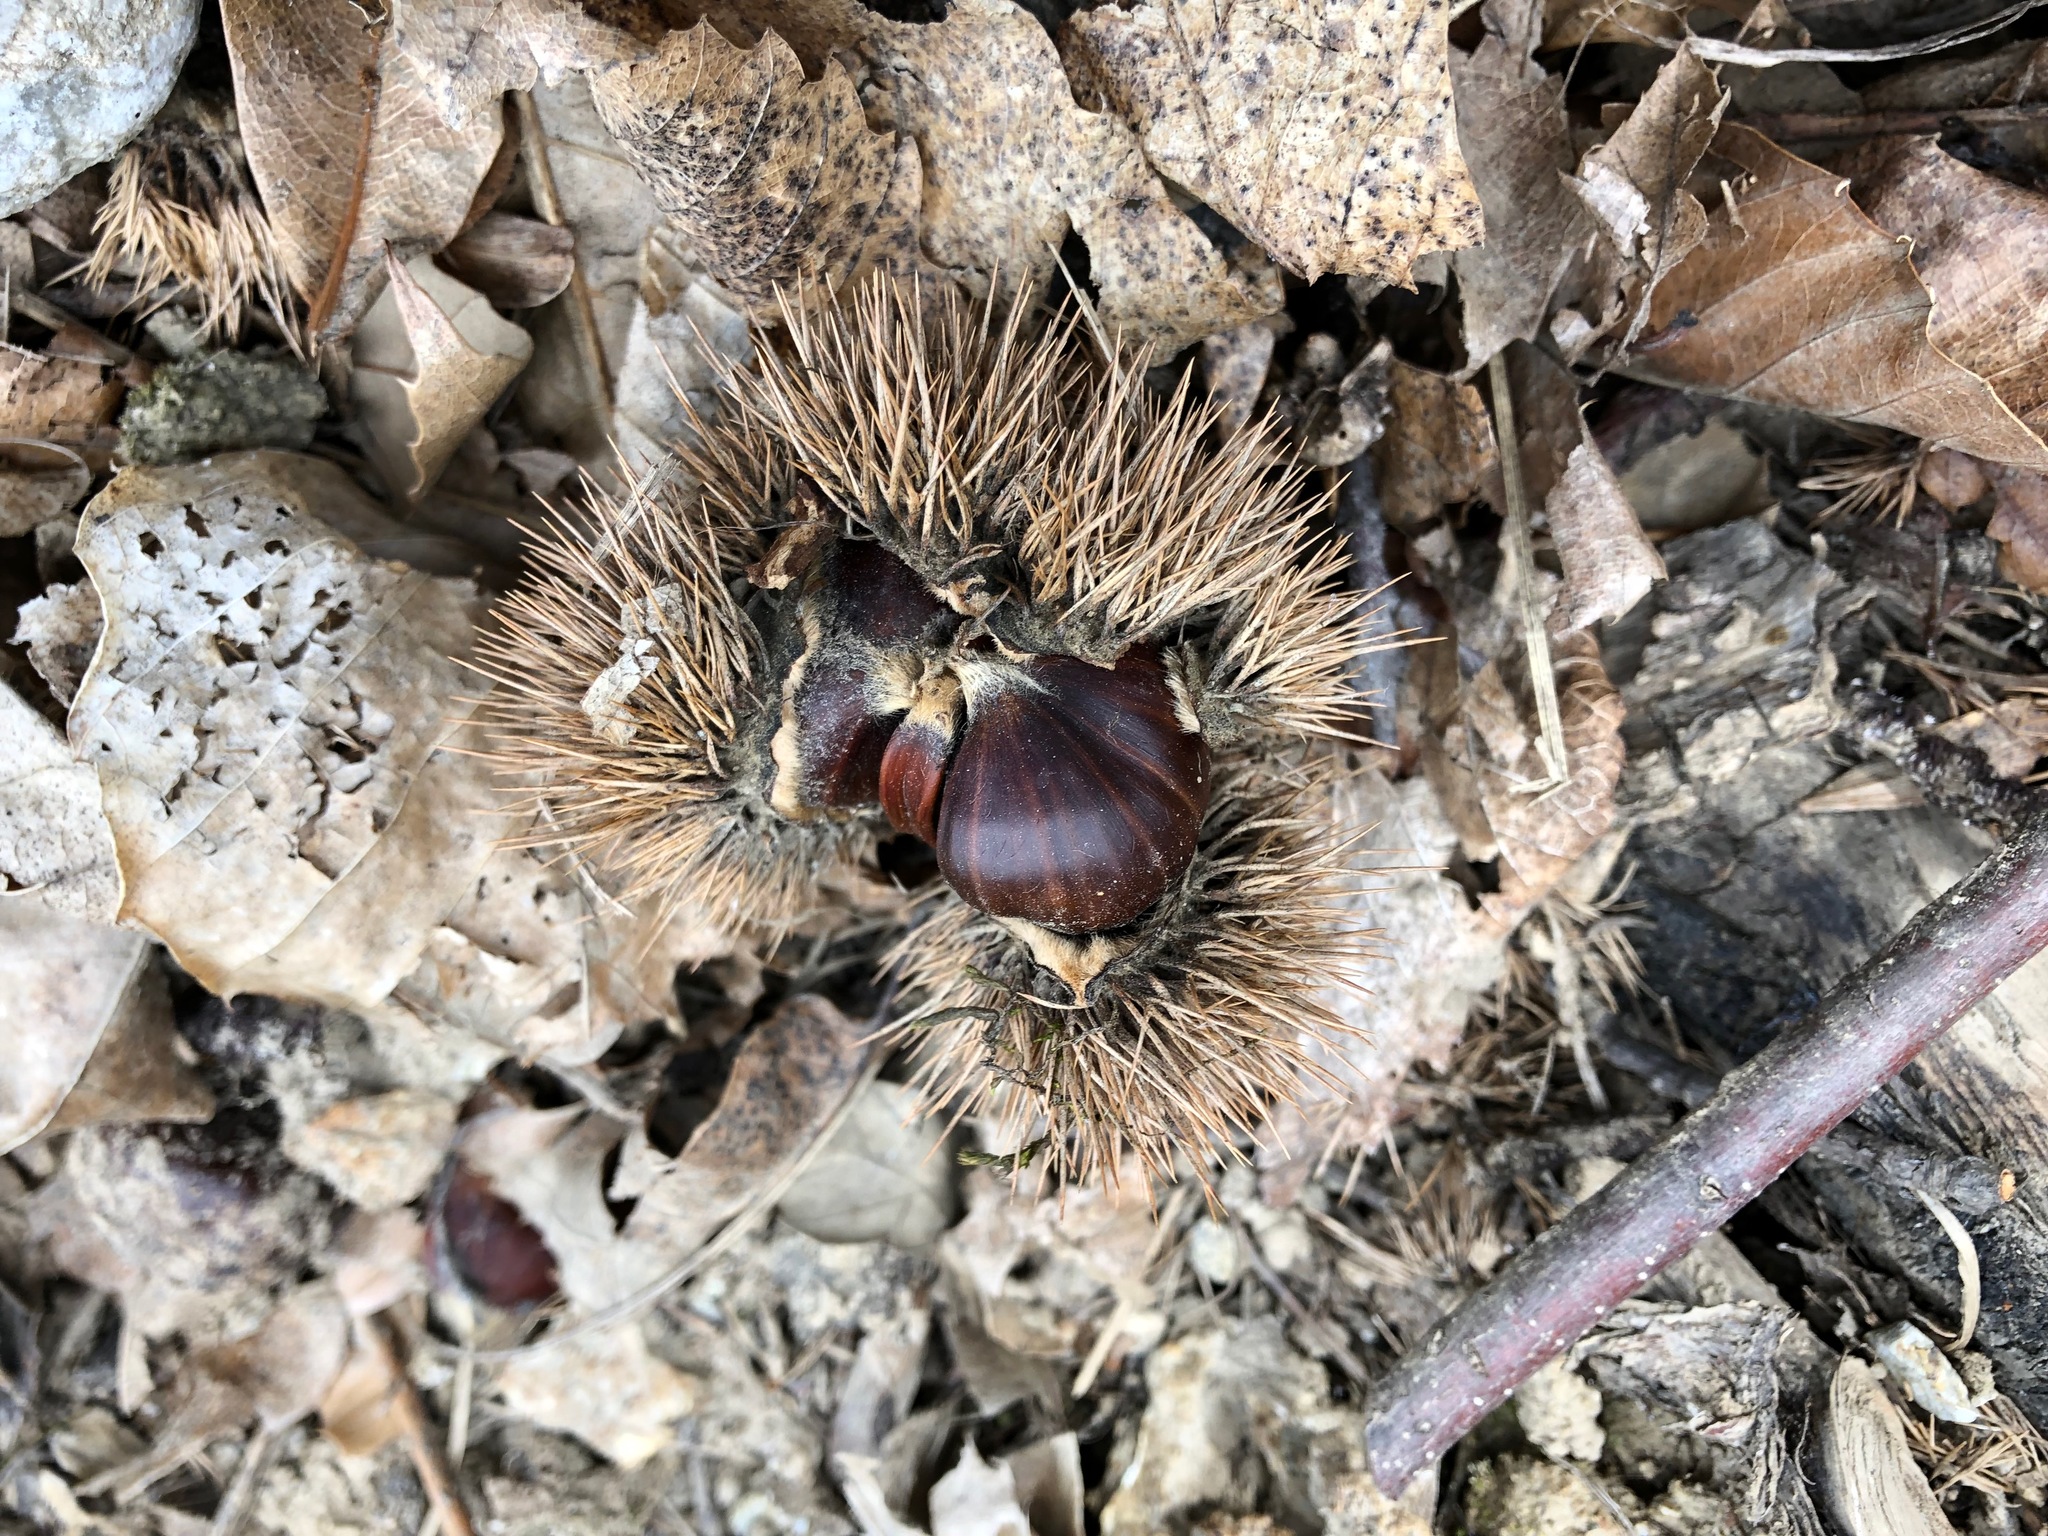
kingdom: Plantae
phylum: Tracheophyta
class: Magnoliopsida
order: Fagales
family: Fagaceae
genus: Castanea
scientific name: Castanea sativa
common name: Sweet chestnut
